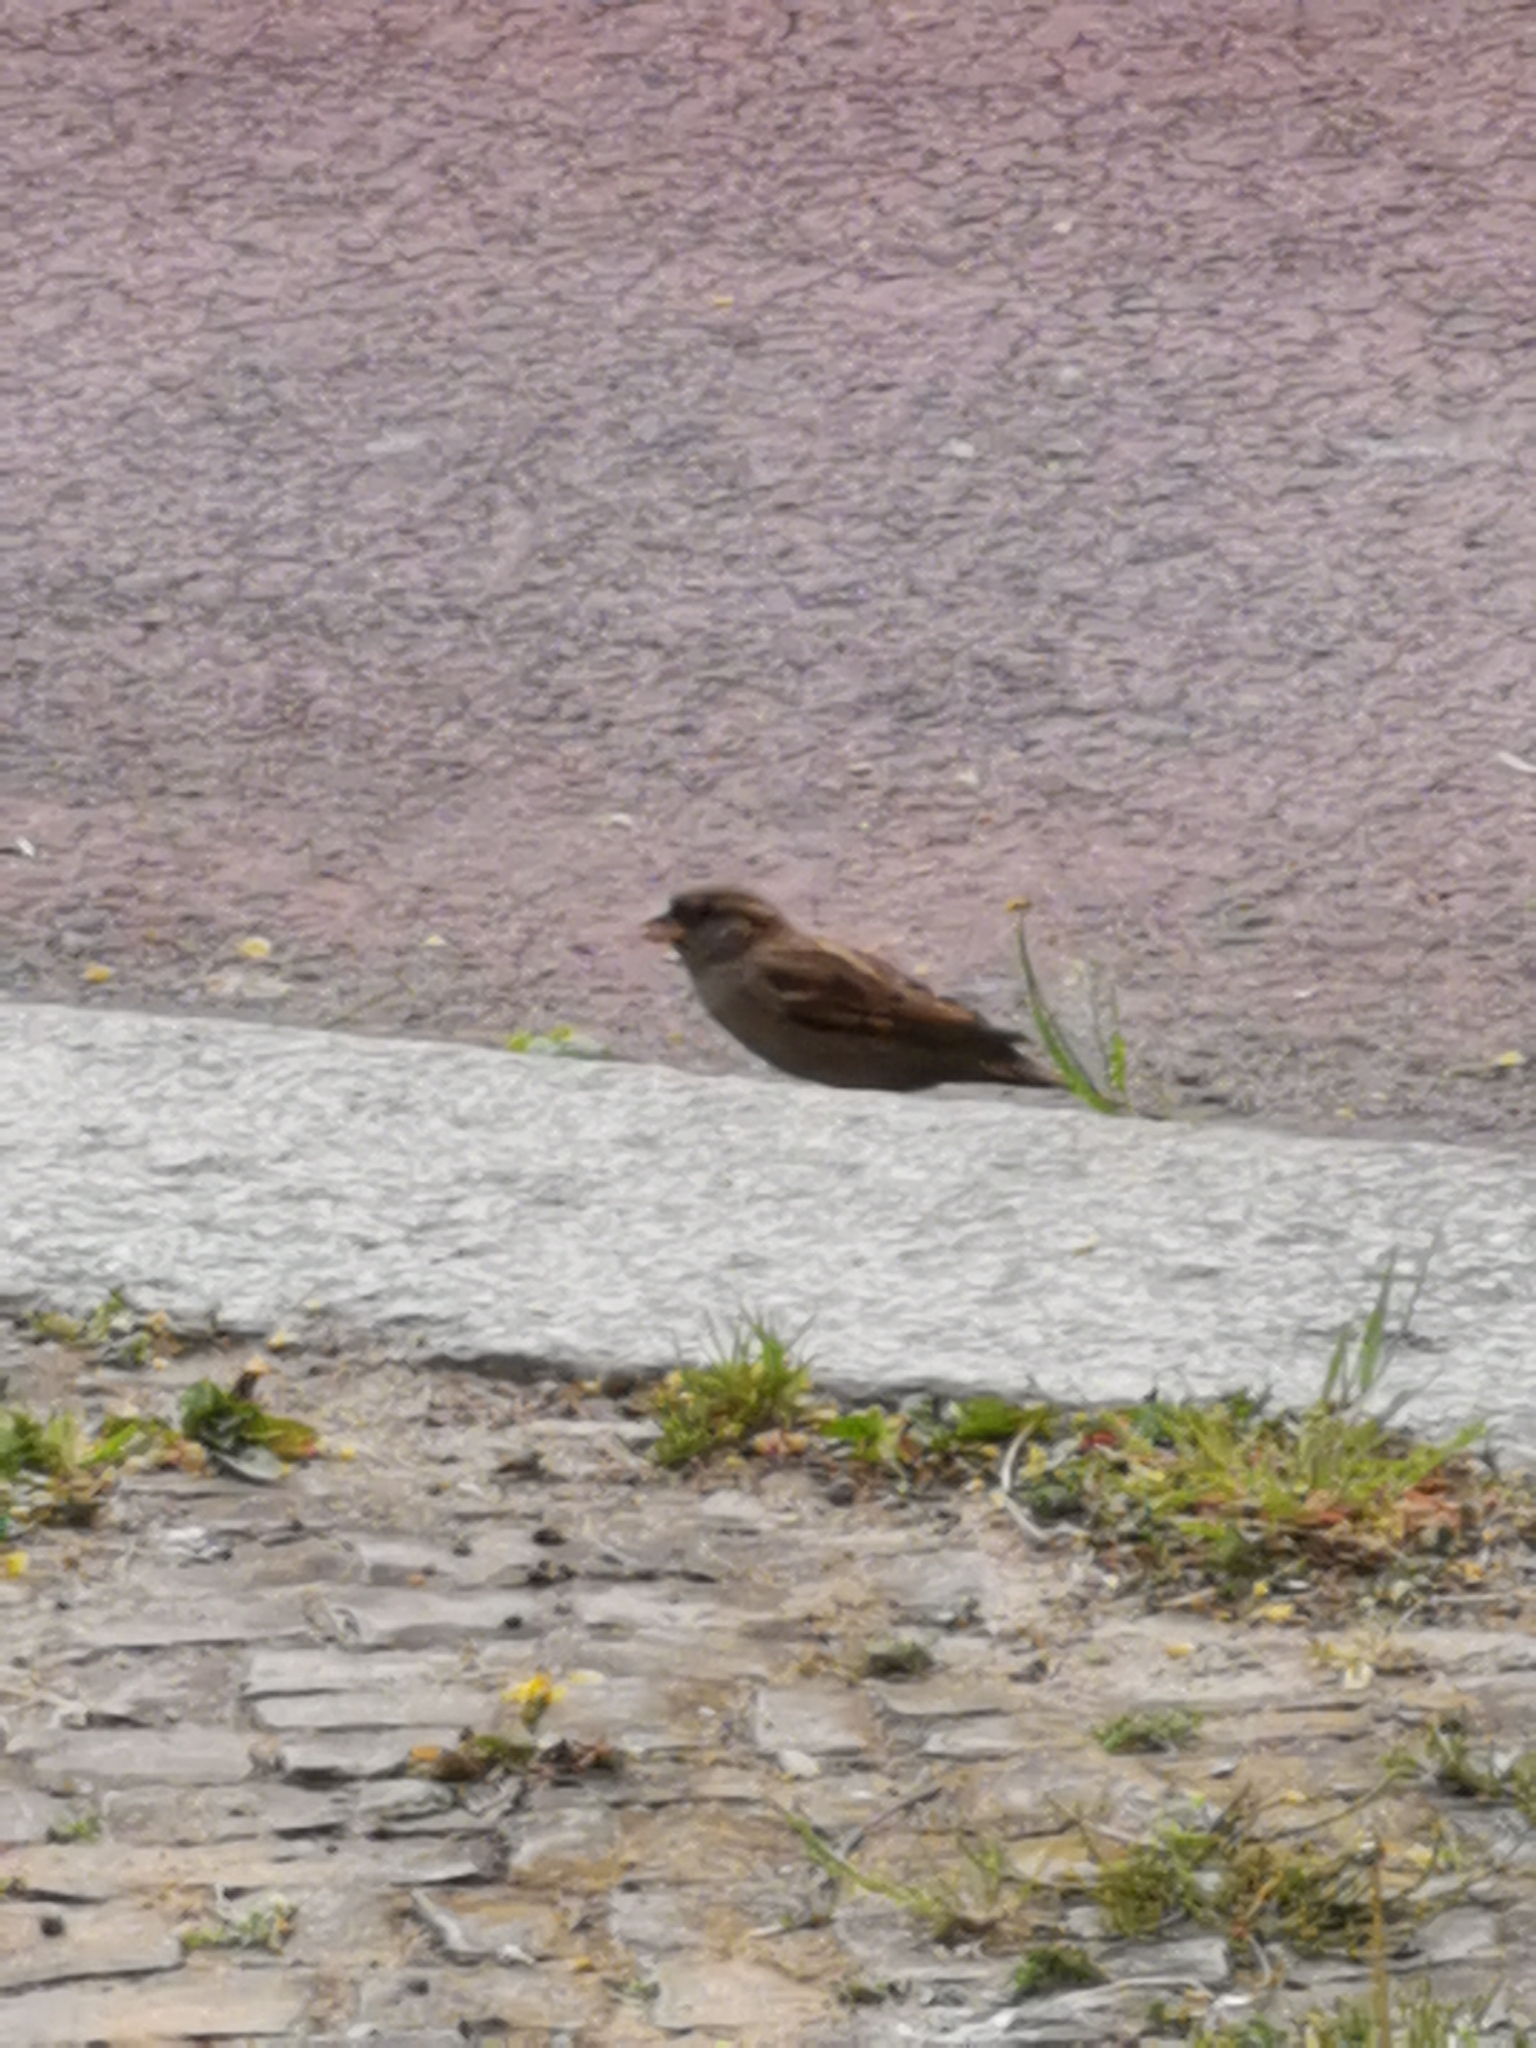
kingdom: Animalia
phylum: Chordata
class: Aves
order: Passeriformes
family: Passeridae
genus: Passer
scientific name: Passer domesticus
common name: House sparrow
